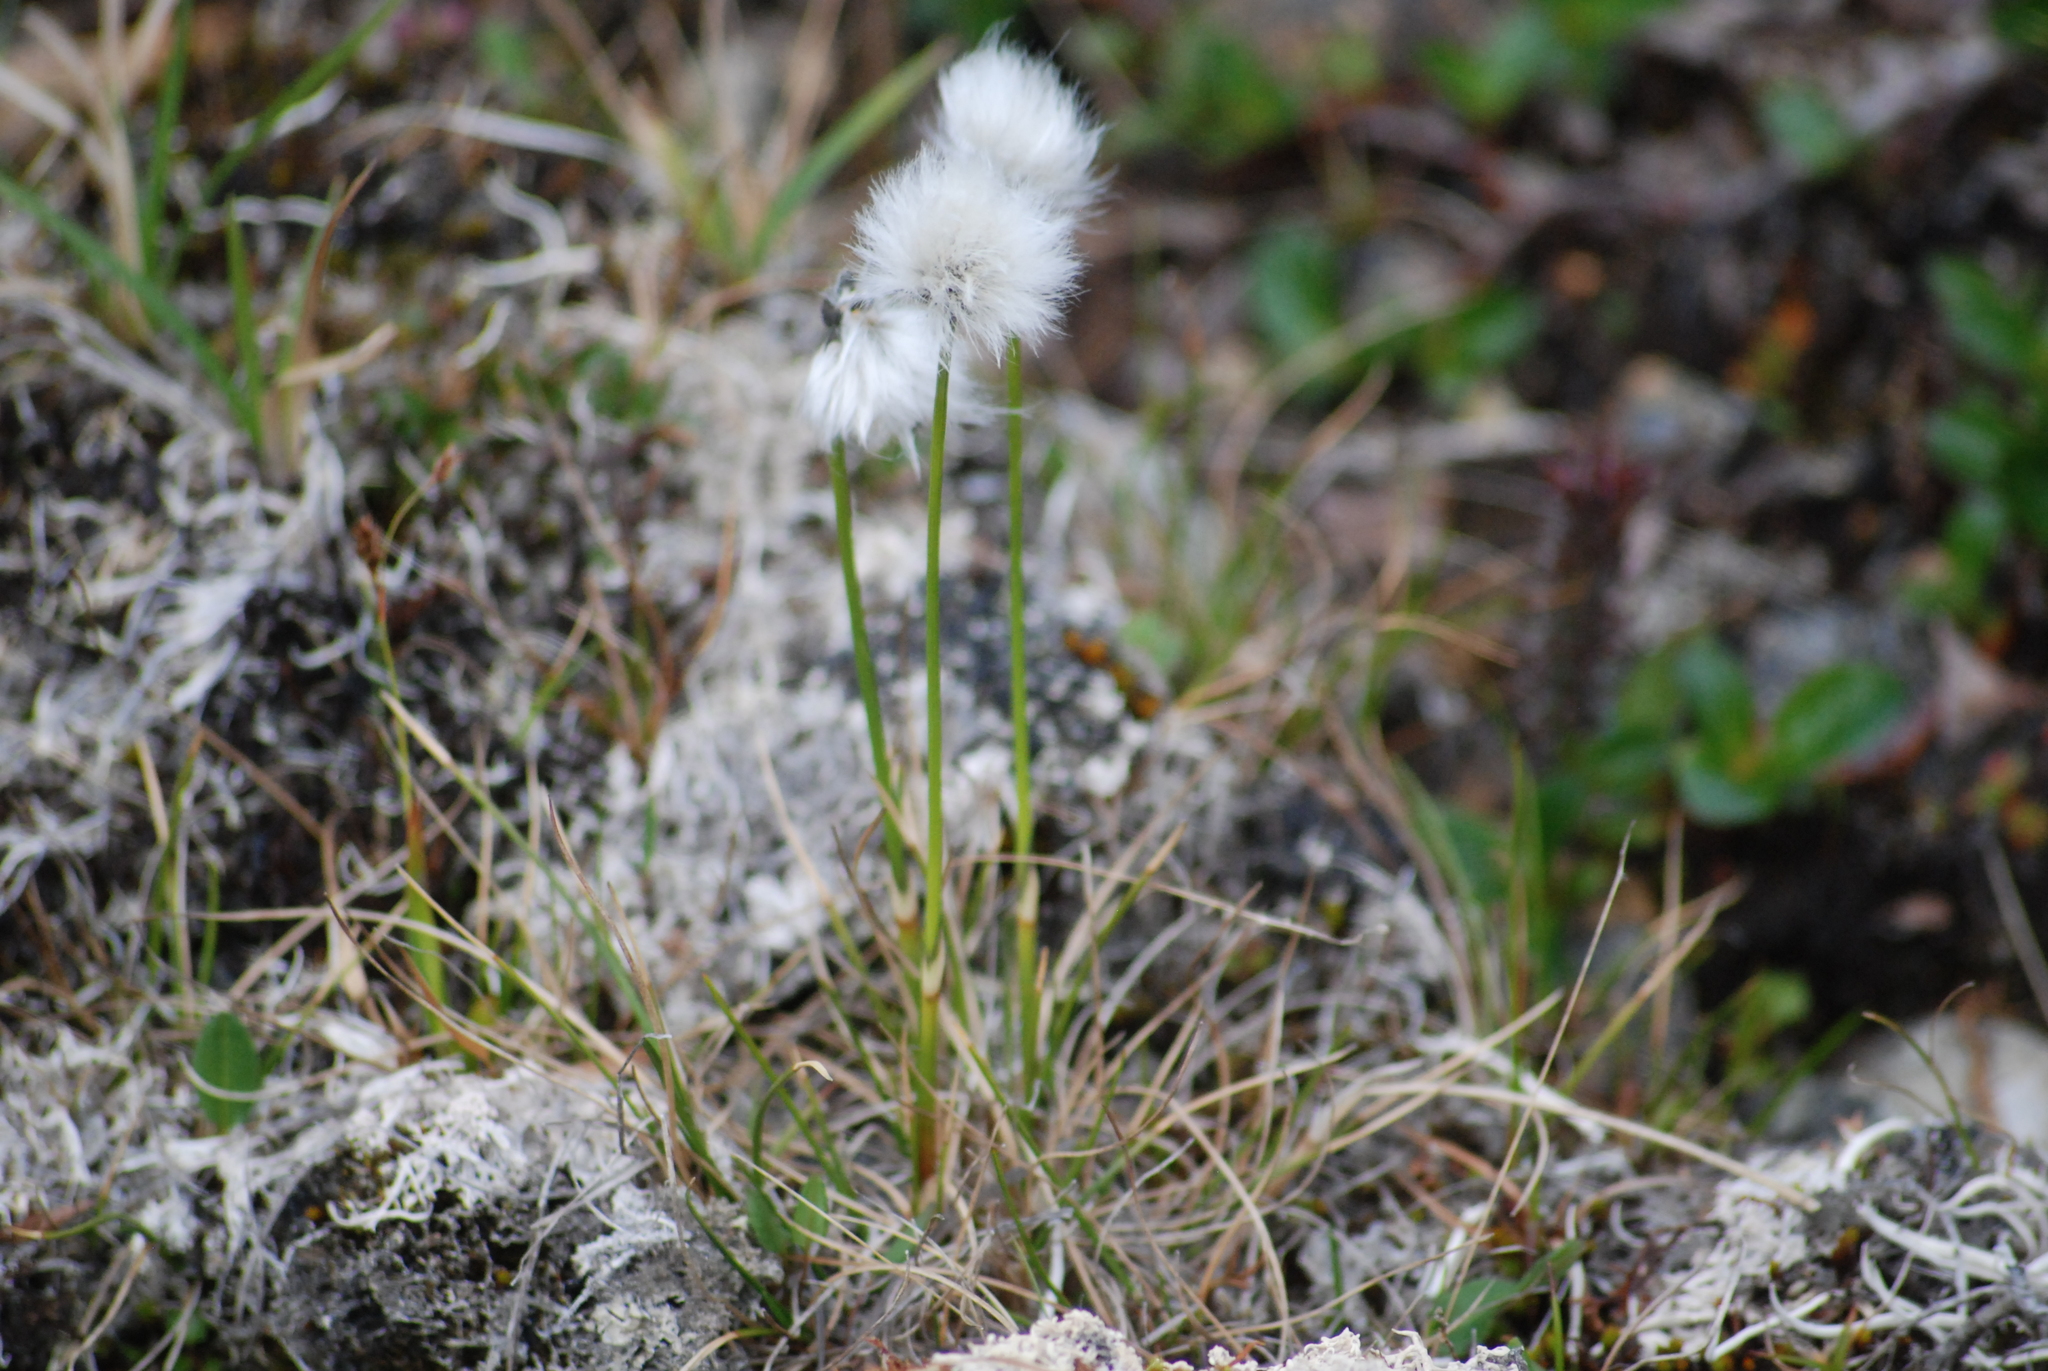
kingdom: Plantae
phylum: Tracheophyta
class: Liliopsida
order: Poales
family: Cyperaceae
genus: Eriophorum
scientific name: Eriophorum vaginatum
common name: Hare's-tail cottongrass
